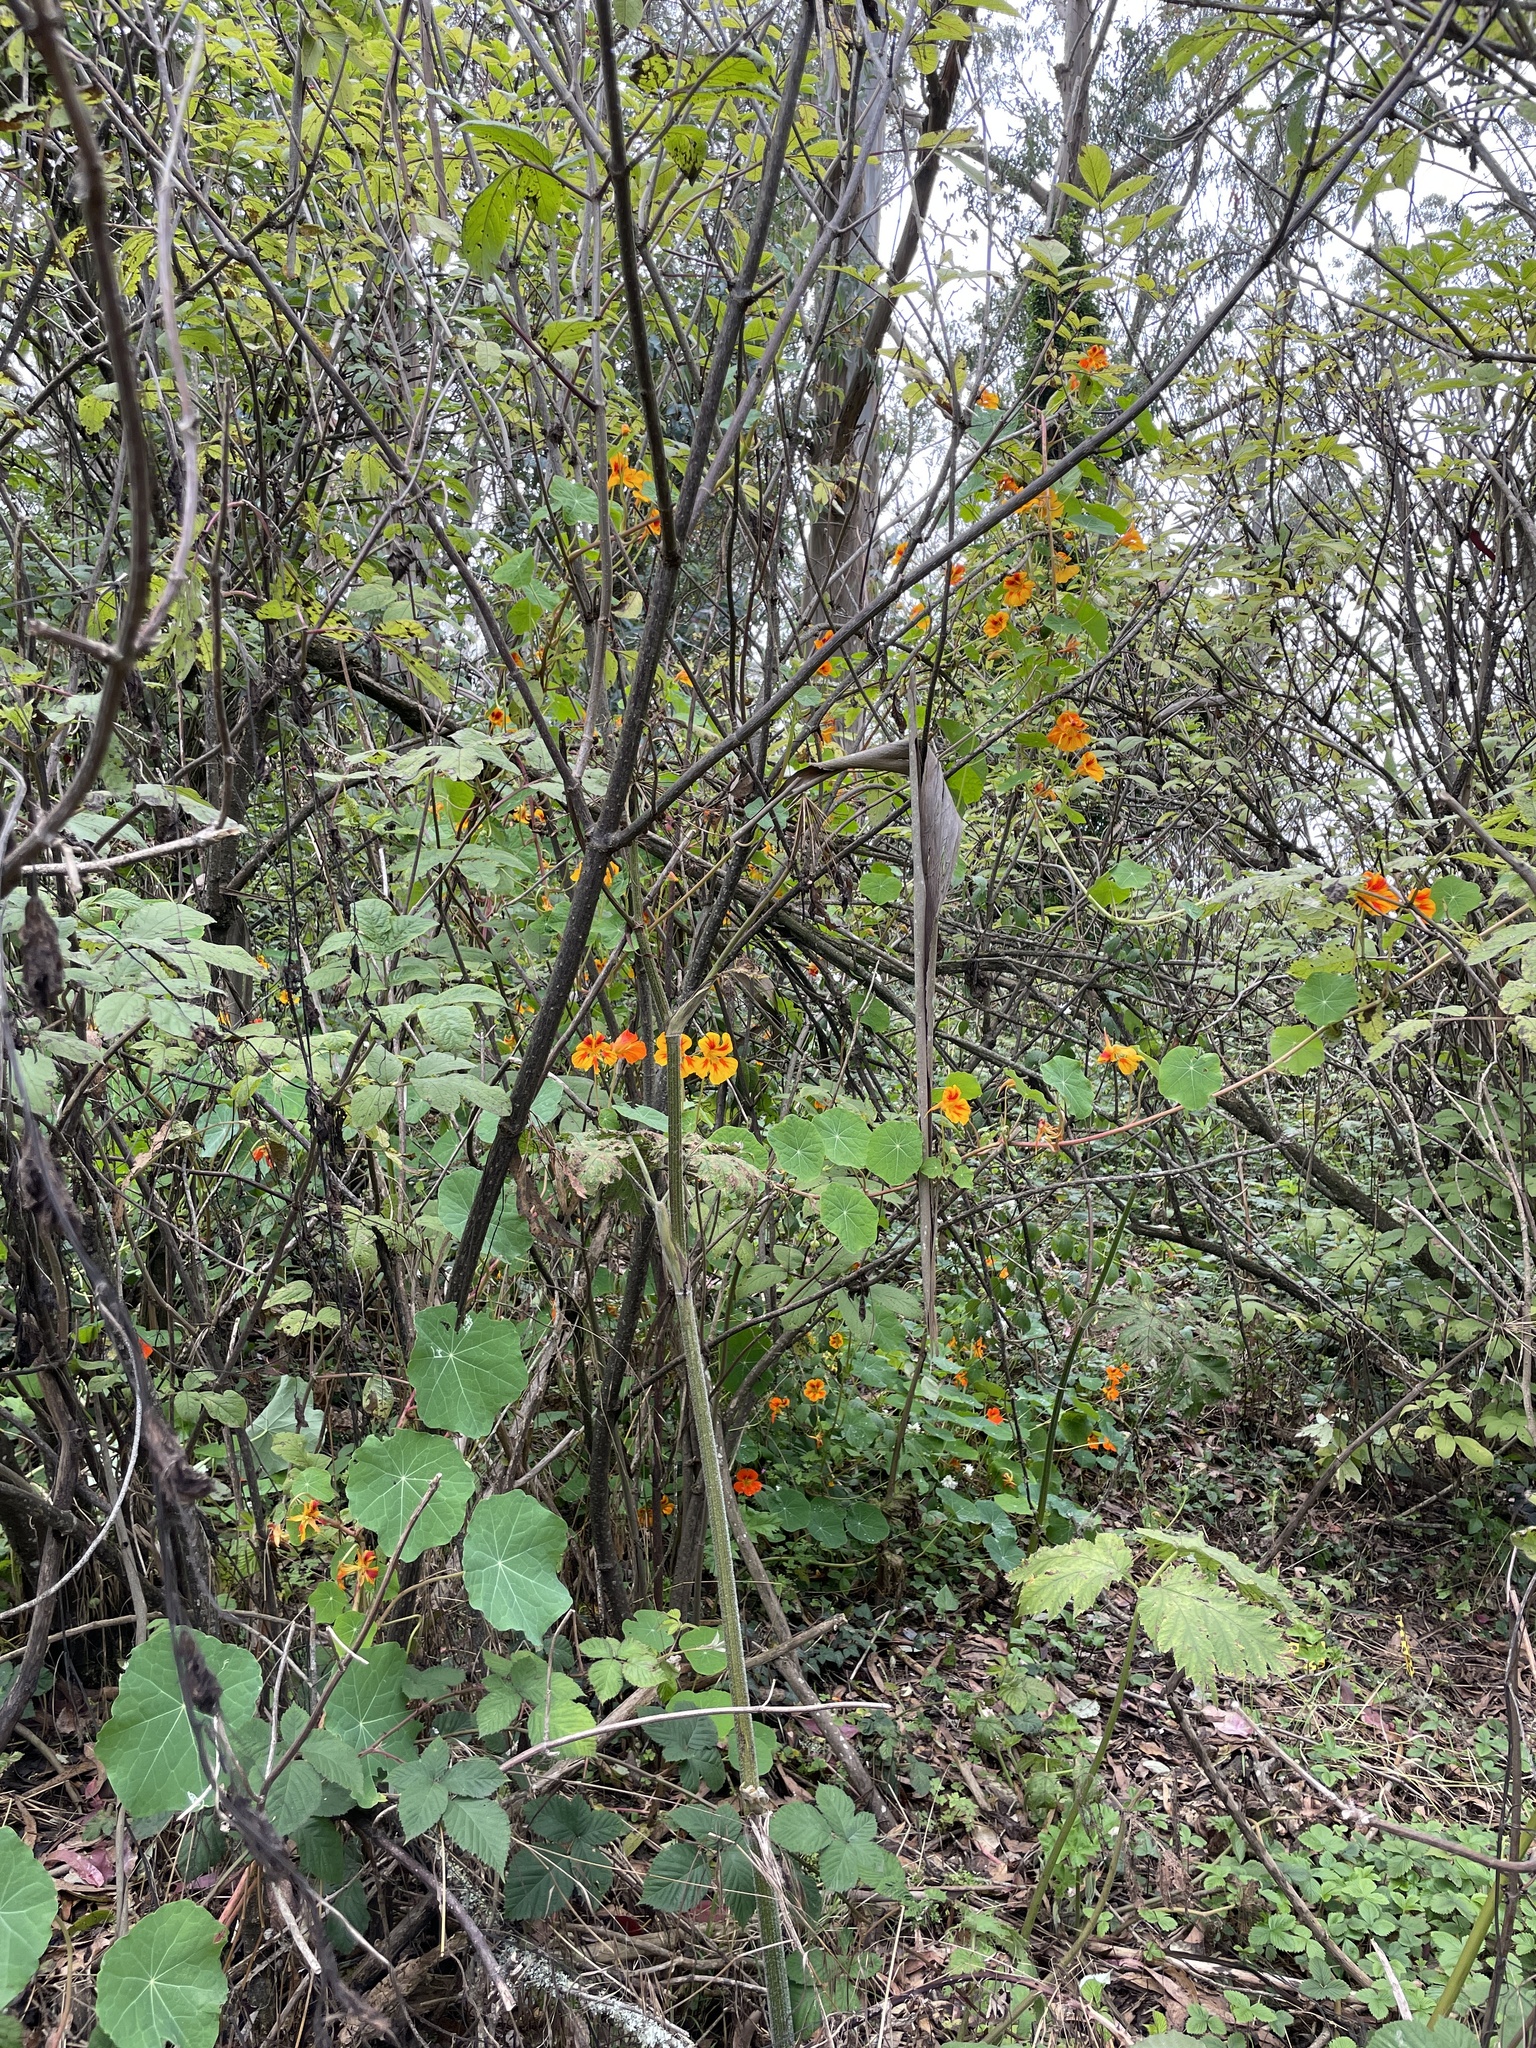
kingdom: Plantae
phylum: Tracheophyta
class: Magnoliopsida
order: Brassicales
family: Tropaeolaceae
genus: Tropaeolum
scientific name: Tropaeolum majus
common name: Nasturtium
